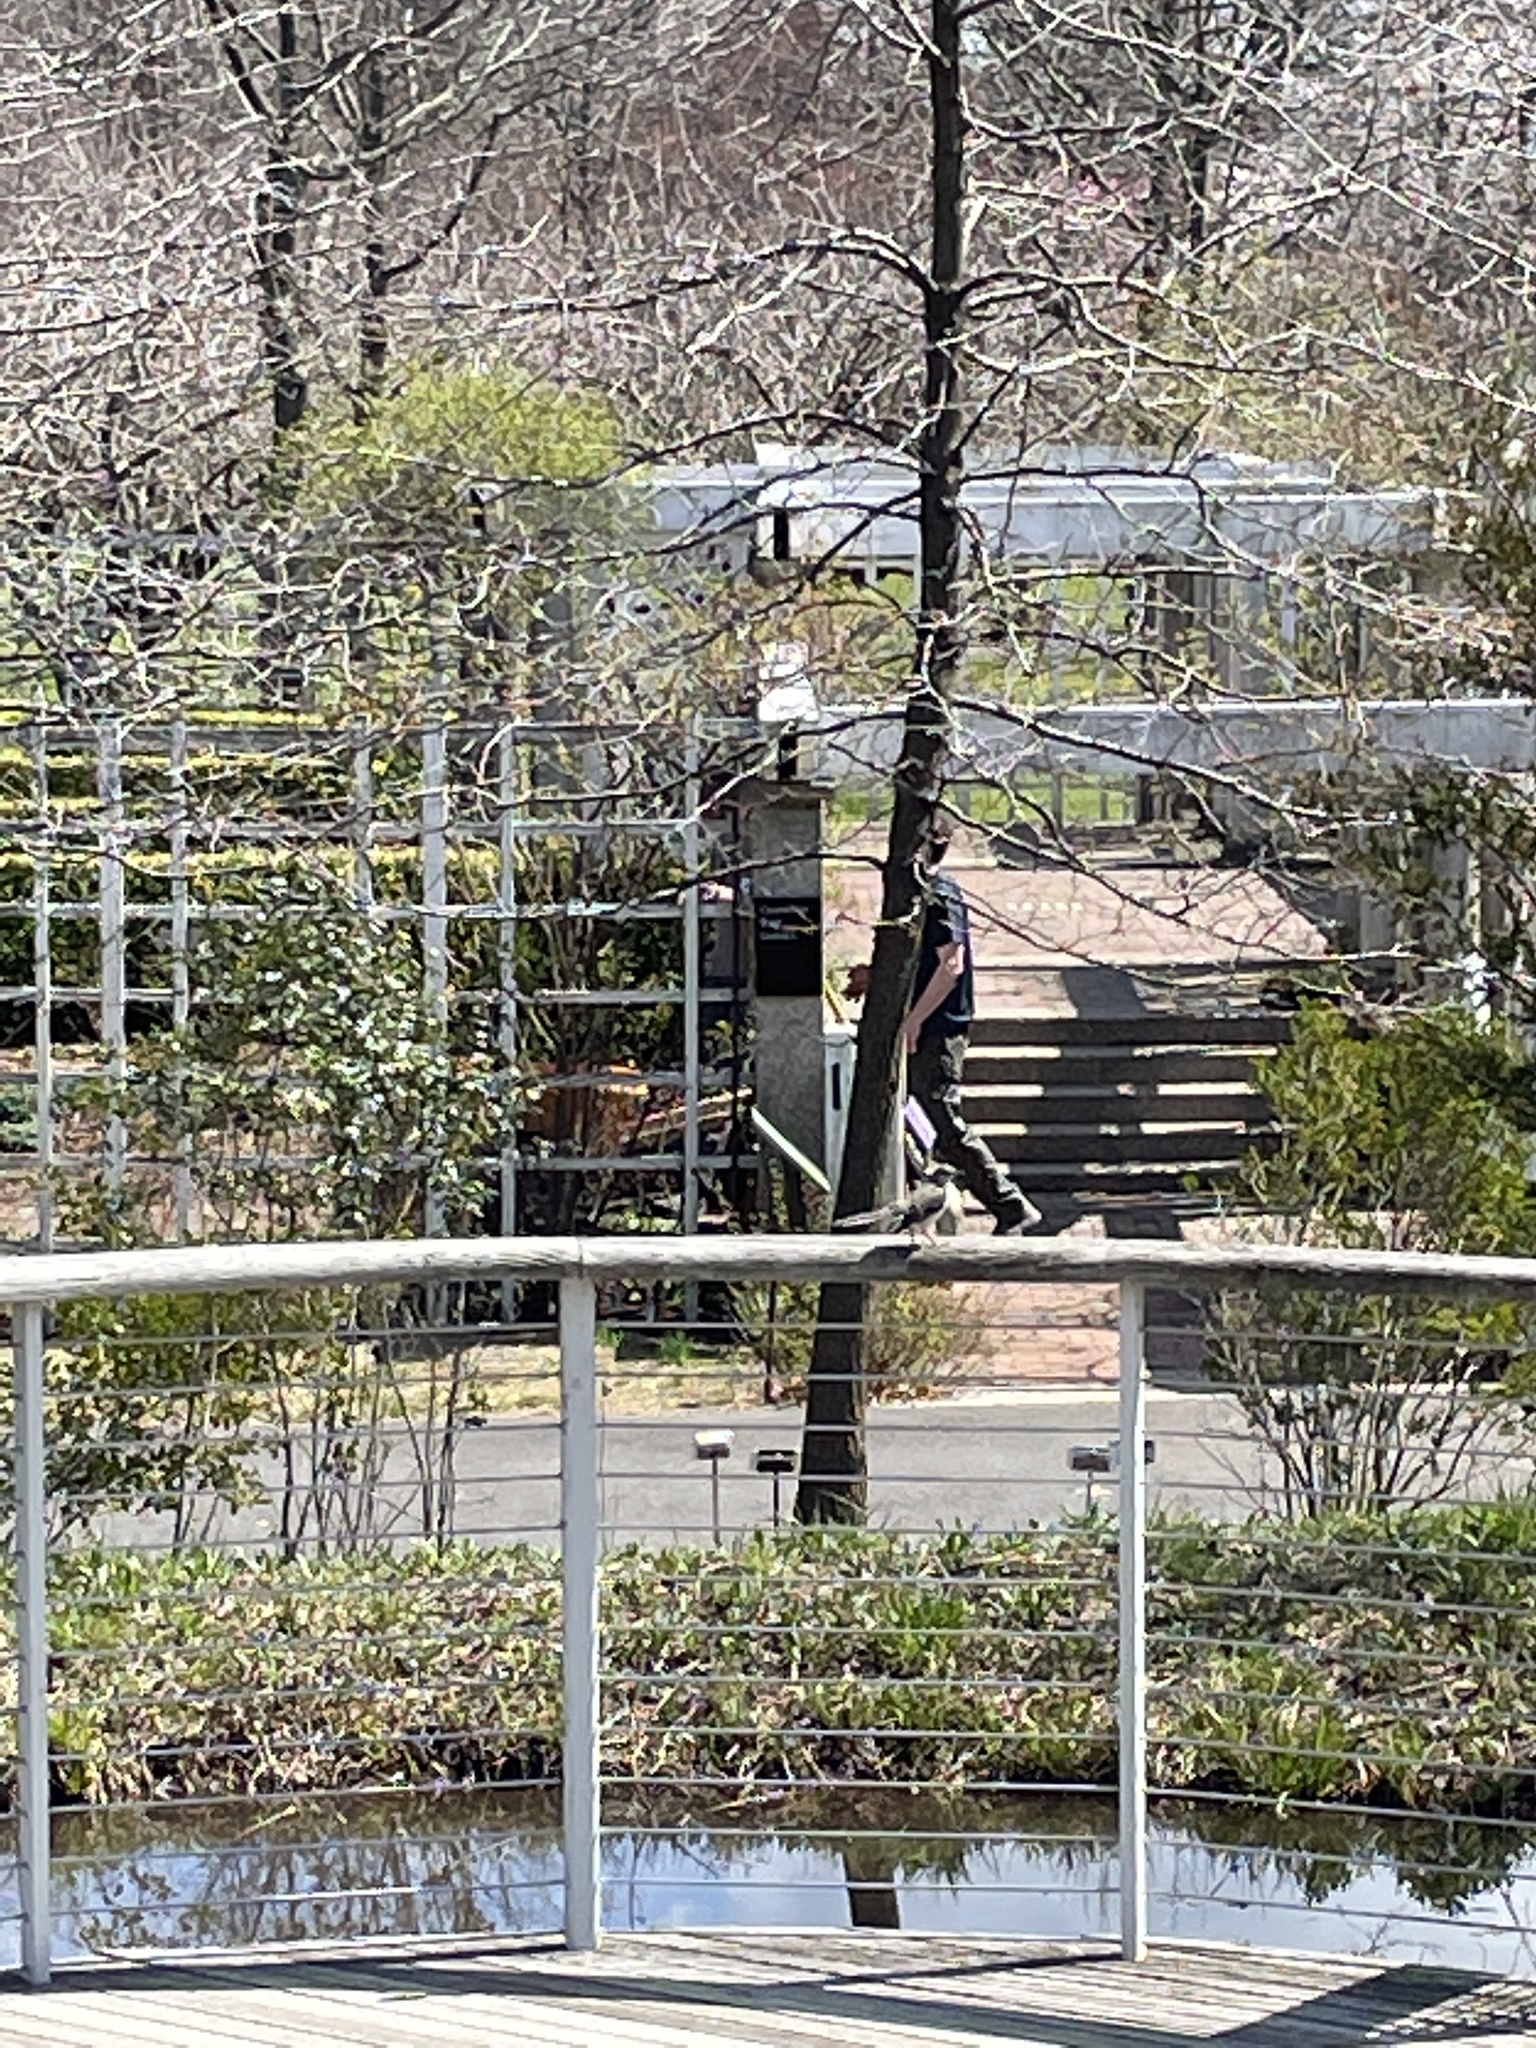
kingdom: Animalia
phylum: Chordata
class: Aves
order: Passeriformes
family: Mimidae
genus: Mimus
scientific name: Mimus polyglottos
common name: Northern mockingbird
